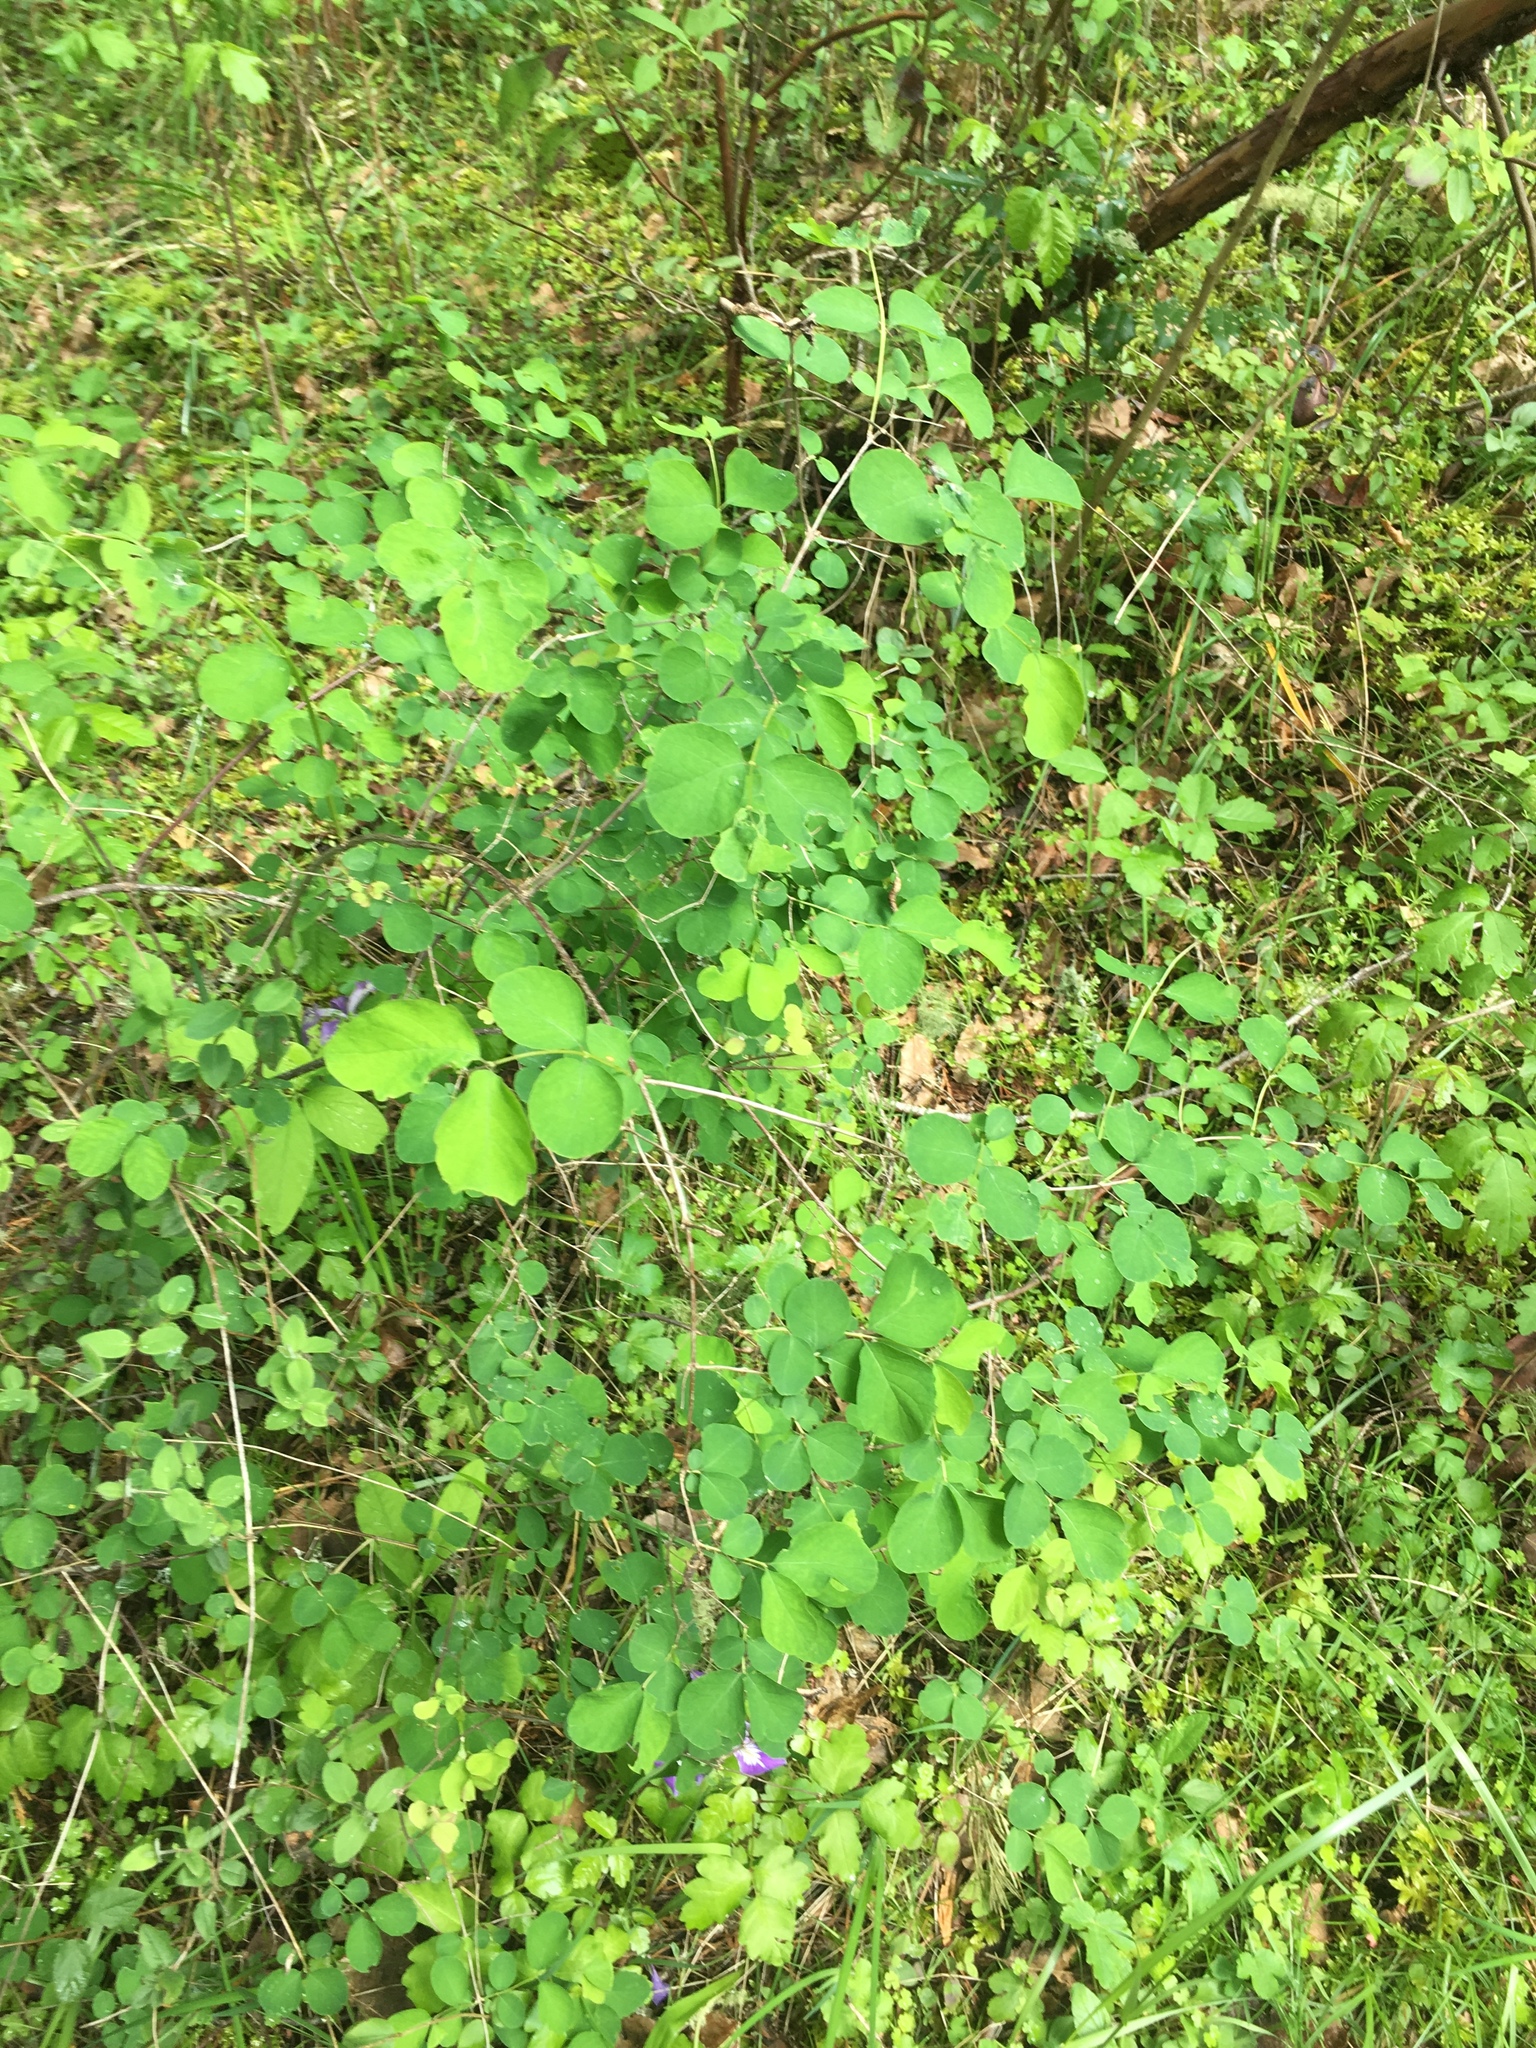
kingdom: Plantae
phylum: Tracheophyta
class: Magnoliopsida
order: Dipsacales
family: Caprifoliaceae
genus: Symphoricarpos
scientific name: Symphoricarpos albus
